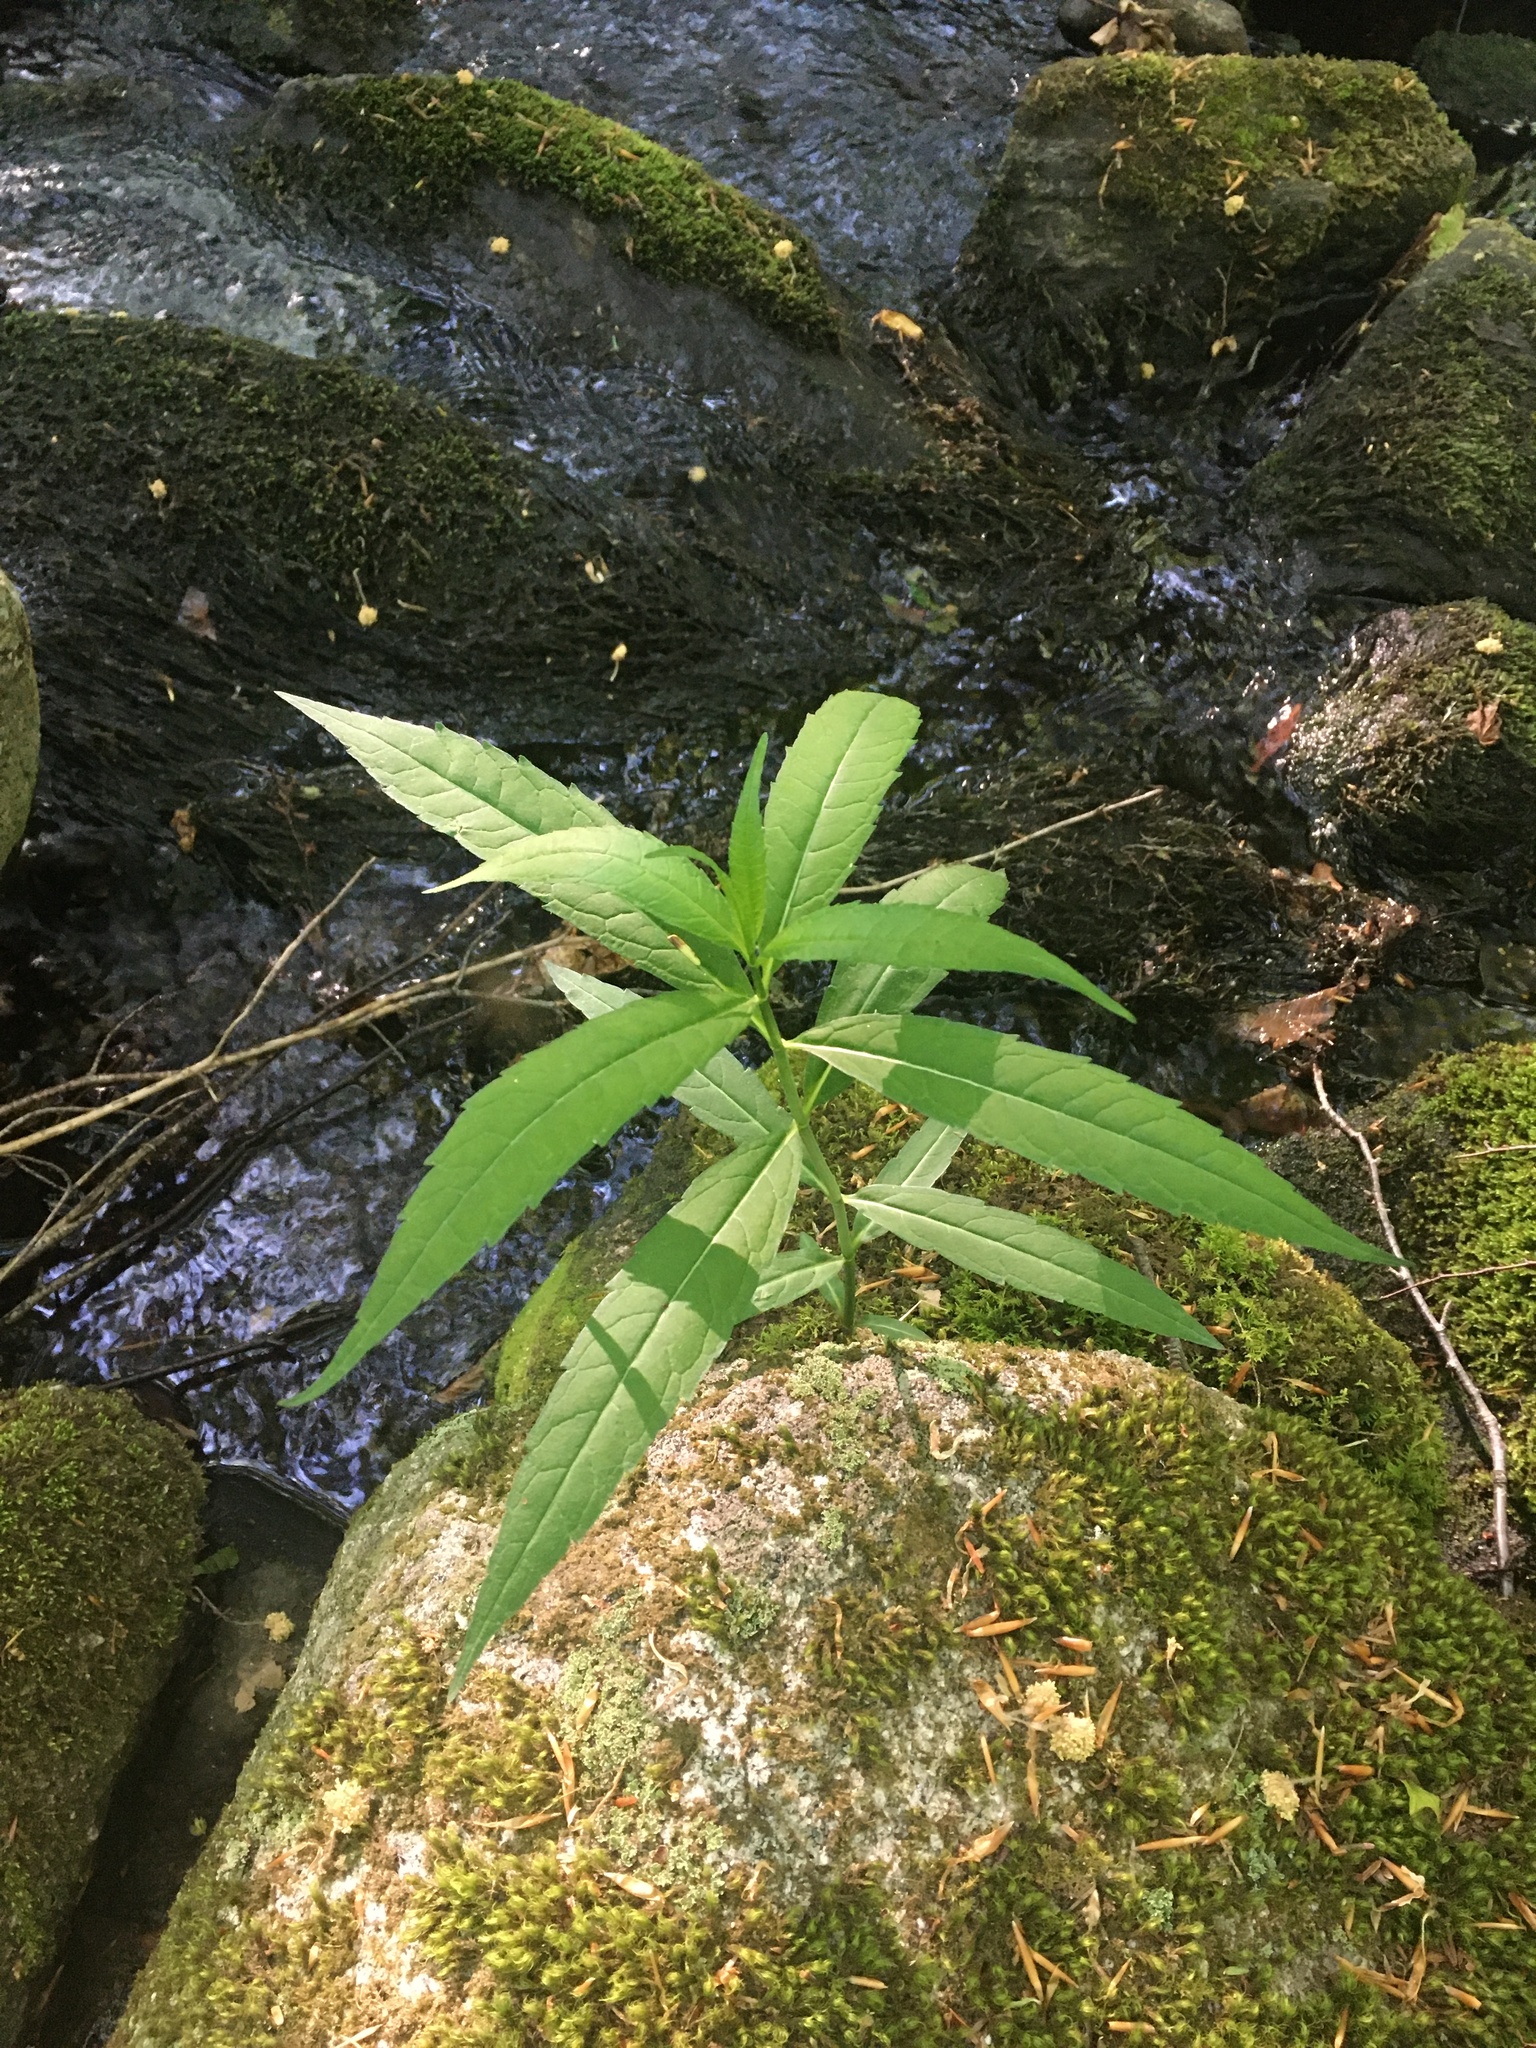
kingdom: Plantae
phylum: Tracheophyta
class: Magnoliopsida
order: Lamiales
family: Plantaginaceae
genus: Chelone
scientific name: Chelone glabra
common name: Snakehead
